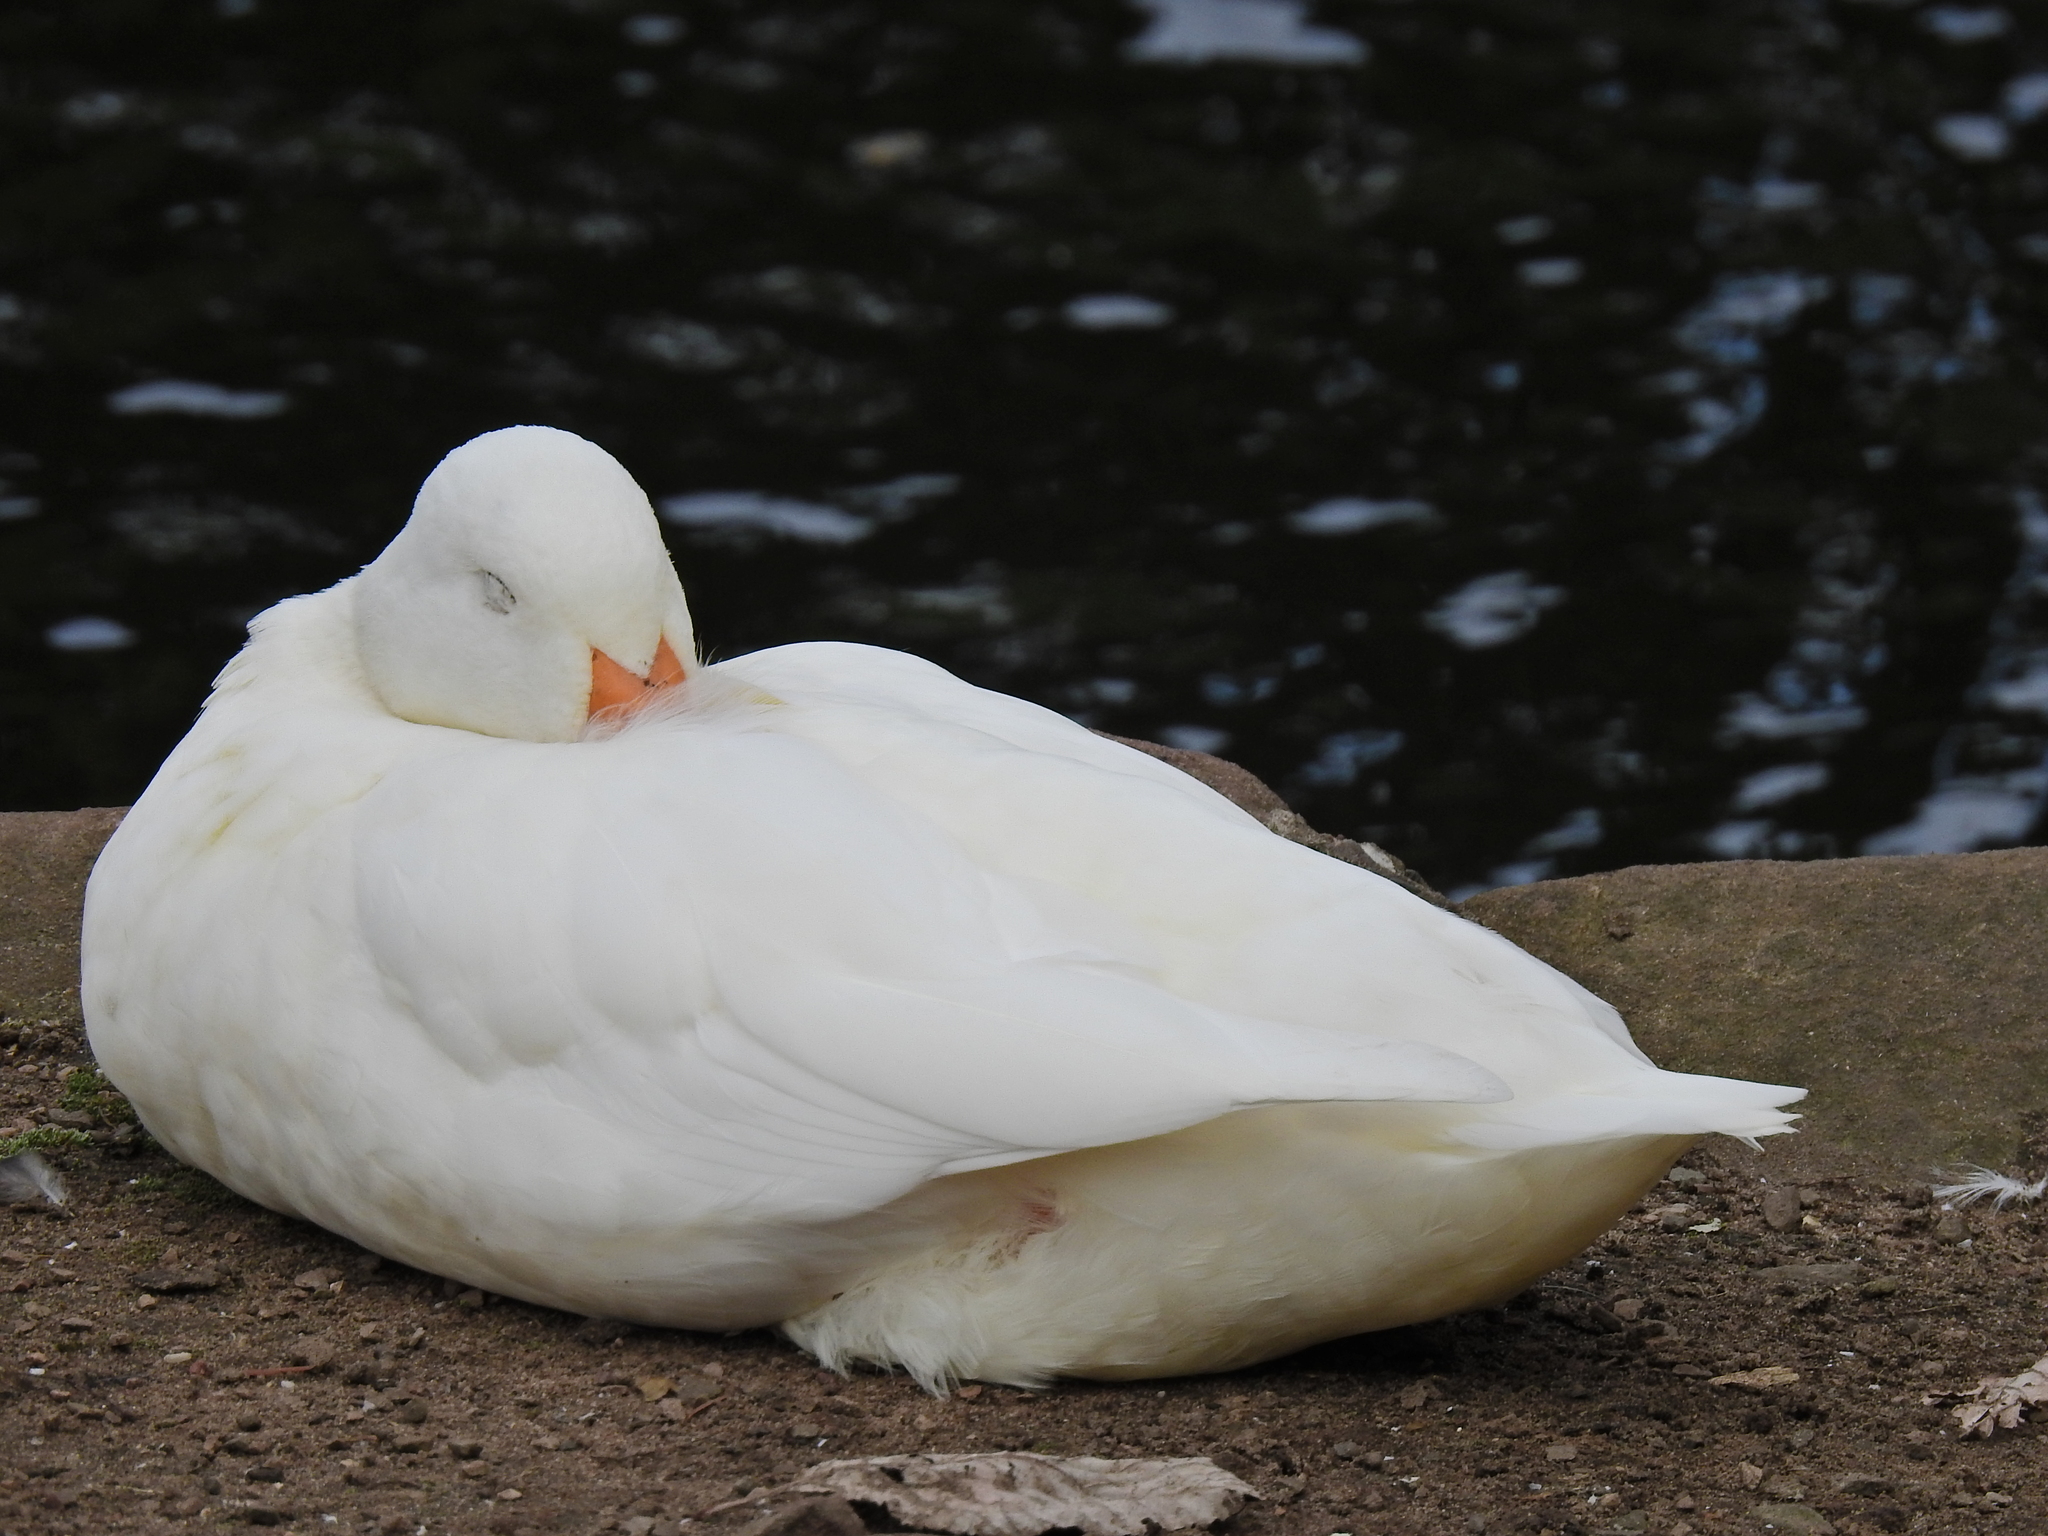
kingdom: Animalia
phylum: Chordata
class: Aves
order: Anseriformes
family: Anatidae
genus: Anas
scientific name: Anas platyrhynchos
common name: Mallard
